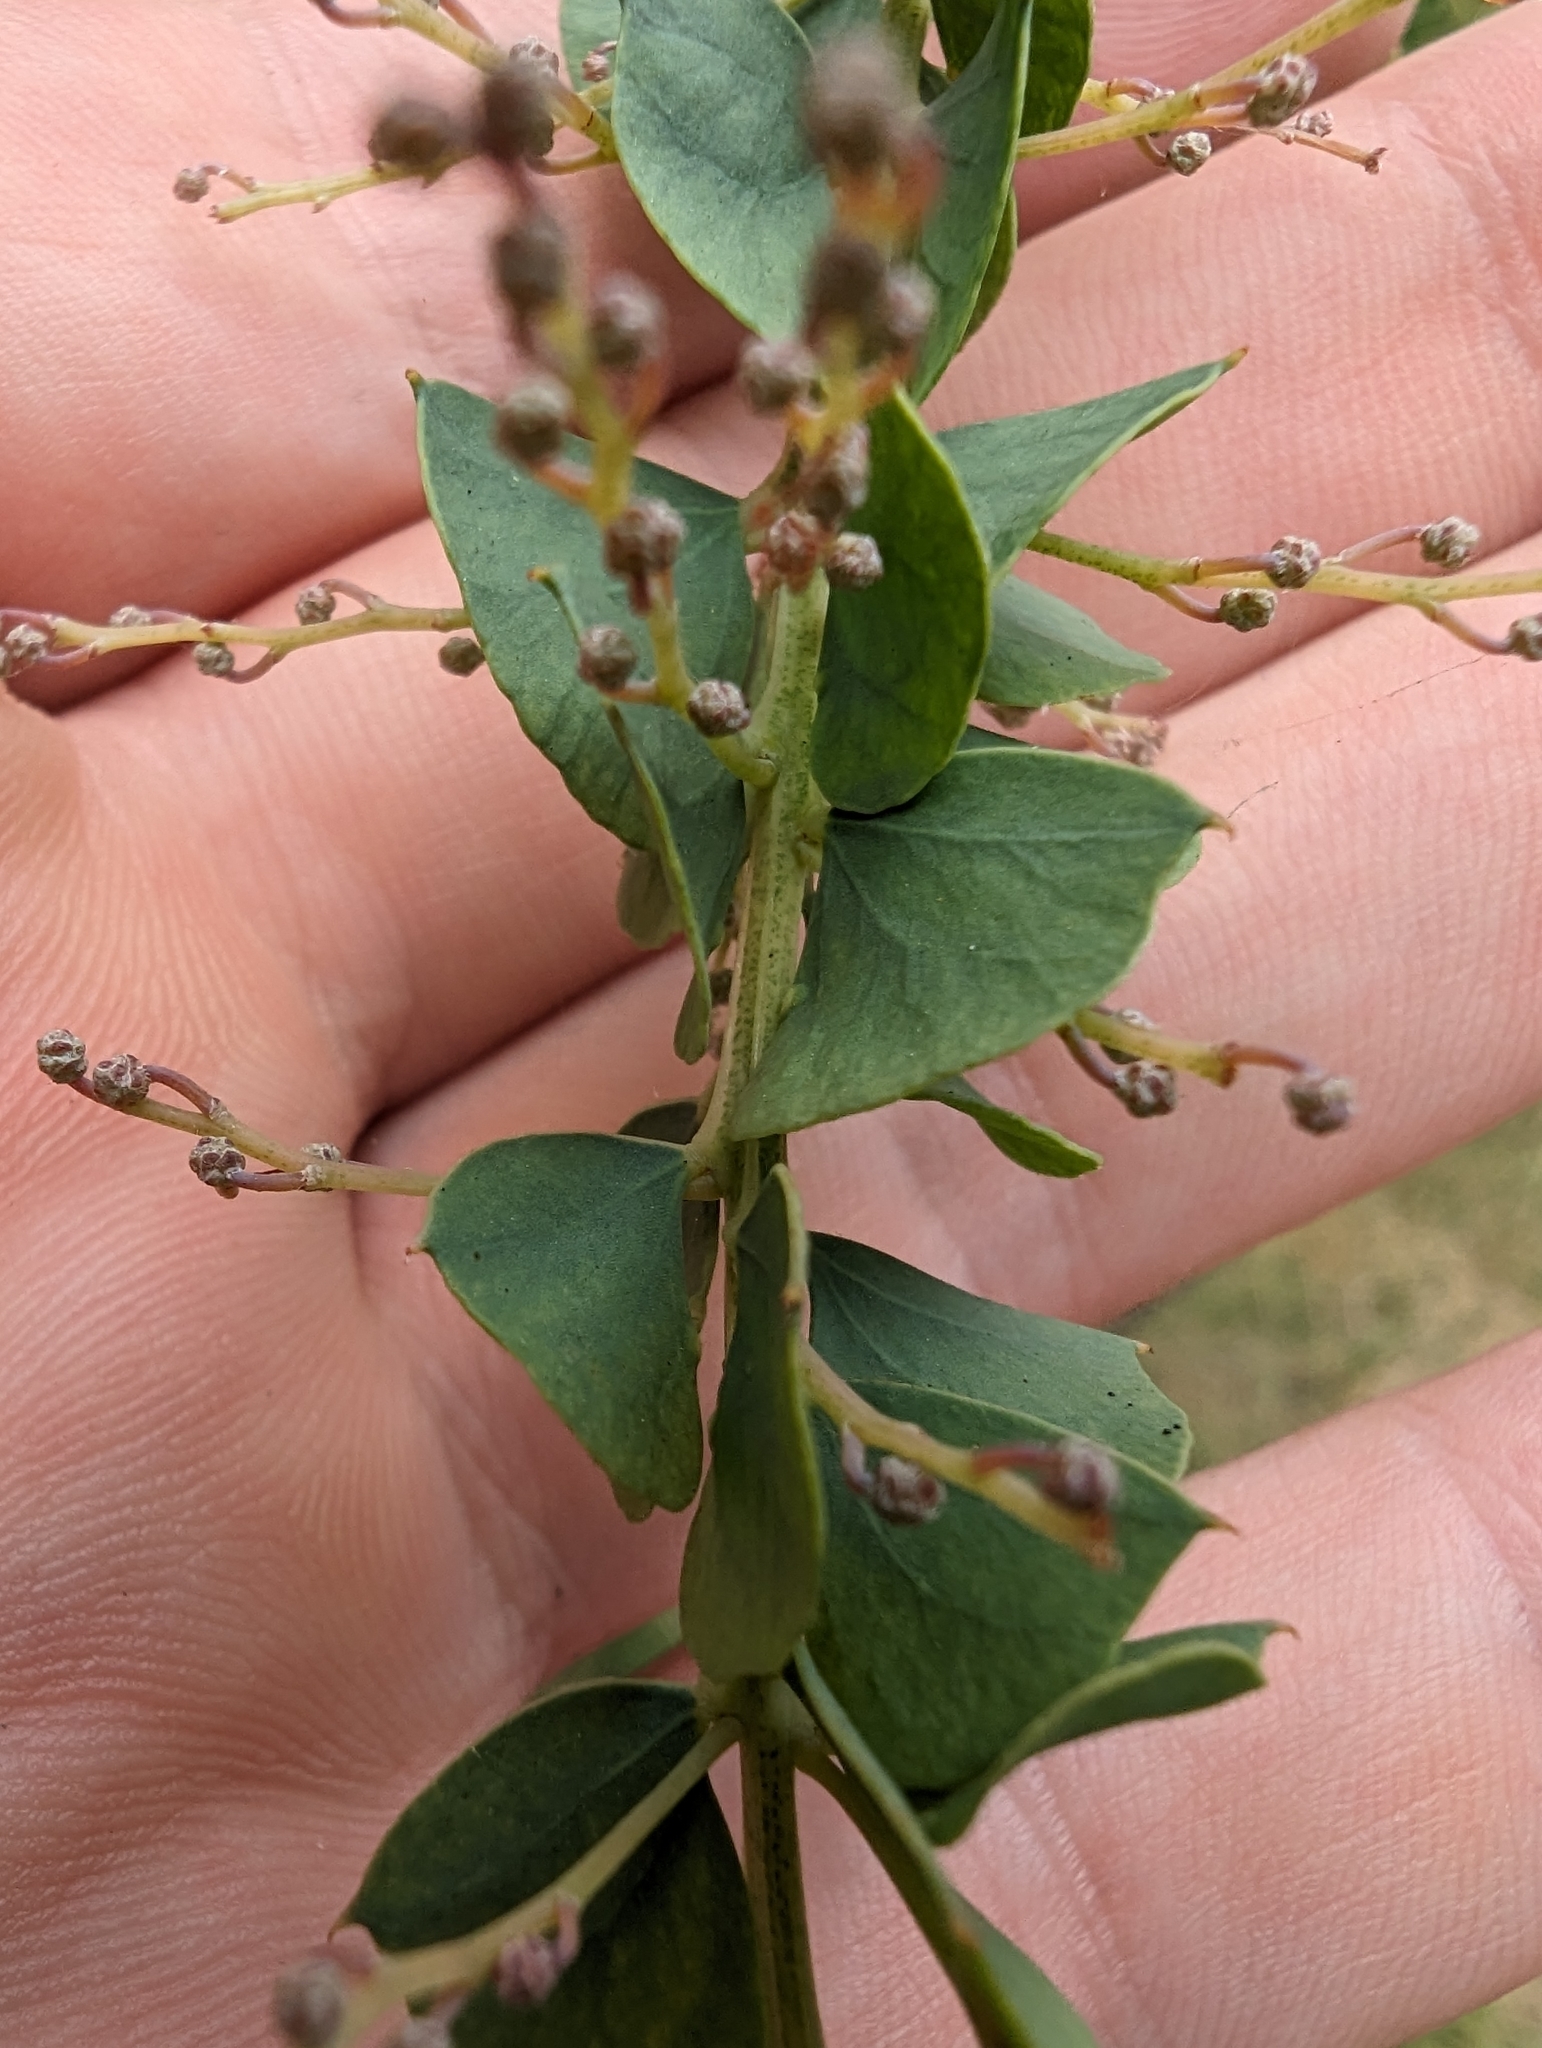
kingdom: Plantae
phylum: Tracheophyta
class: Magnoliopsida
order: Fabales
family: Fabaceae
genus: Acacia
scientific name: Acacia pravissima
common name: Tumut wattle
